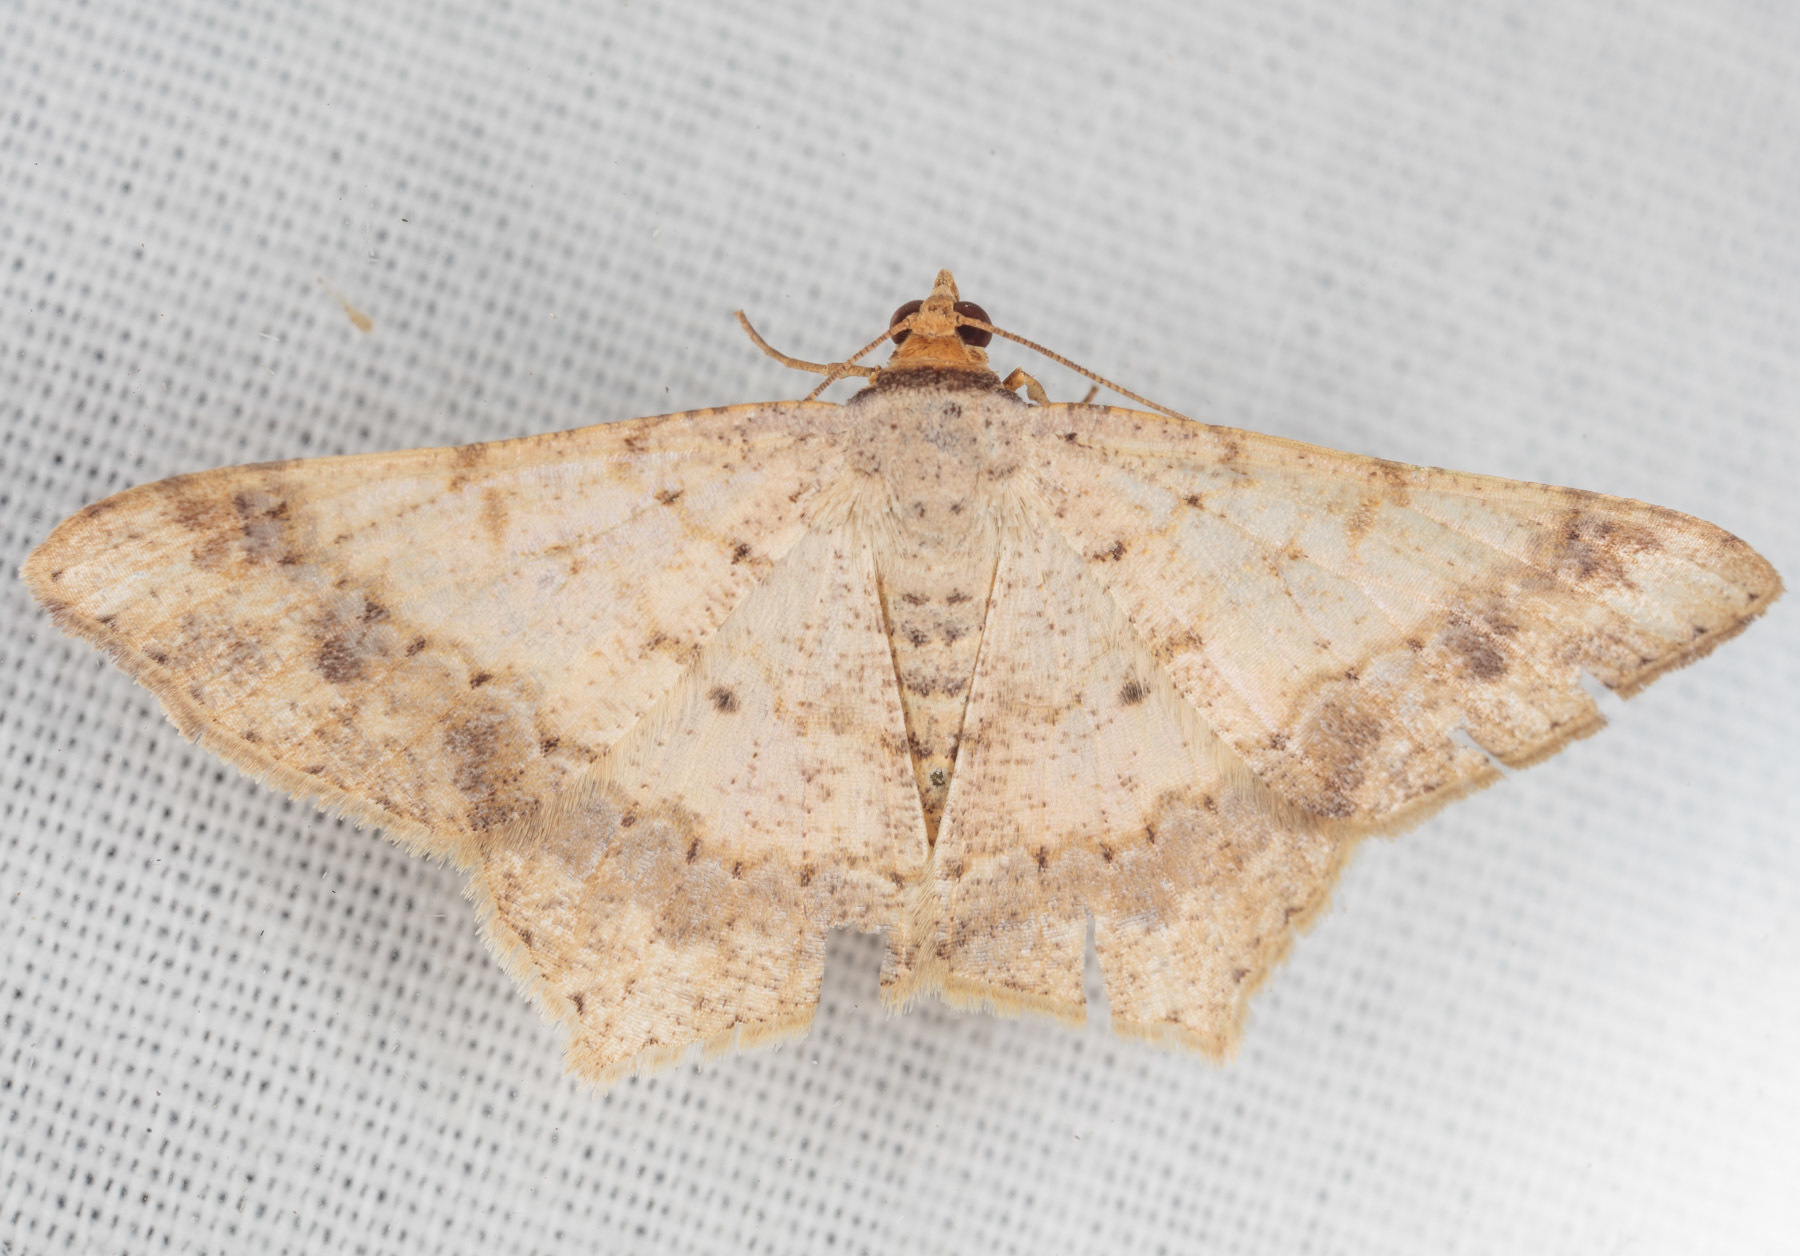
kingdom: Animalia
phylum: Arthropoda
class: Insecta
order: Lepidoptera
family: Geometridae
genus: Macaria
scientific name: Macaria abydata
